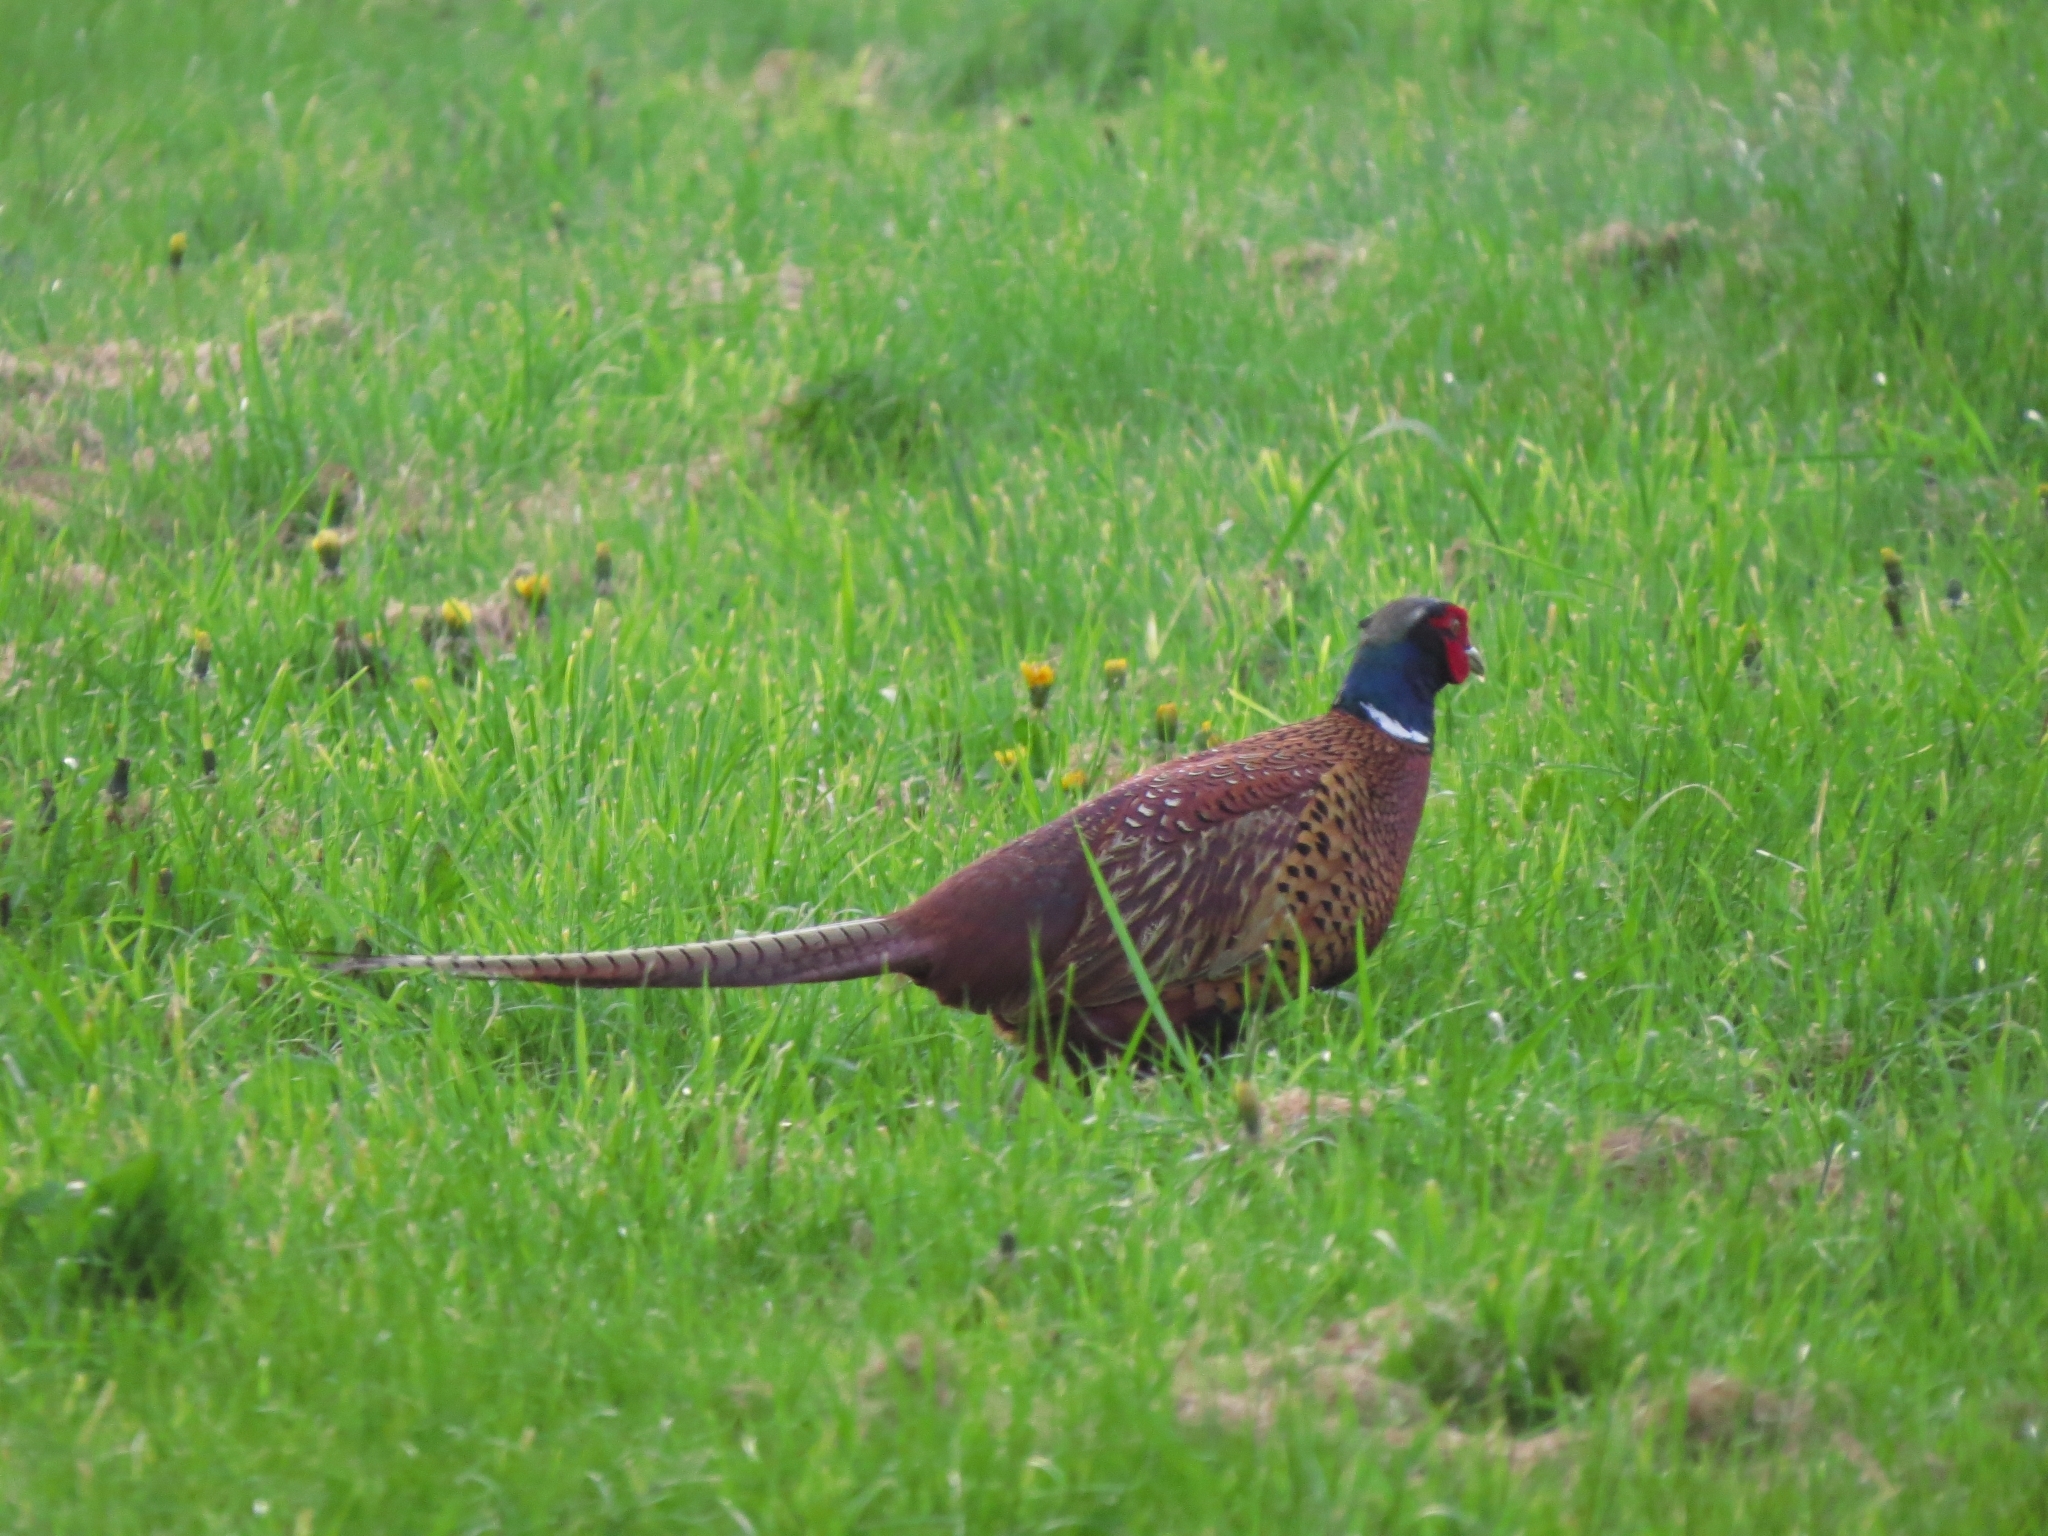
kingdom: Animalia
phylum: Chordata
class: Aves
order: Galliformes
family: Phasianidae
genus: Phasianus
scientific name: Phasianus colchicus
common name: Common pheasant
